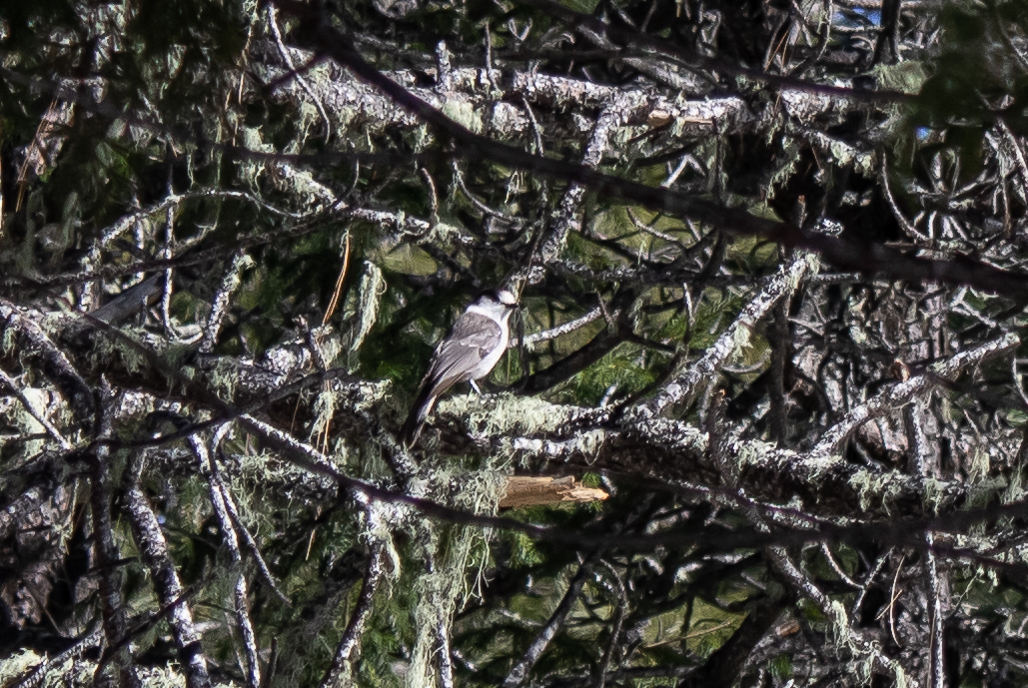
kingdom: Animalia
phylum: Chordata
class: Aves
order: Passeriformes
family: Corvidae
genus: Perisoreus
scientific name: Perisoreus canadensis
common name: Gray jay
